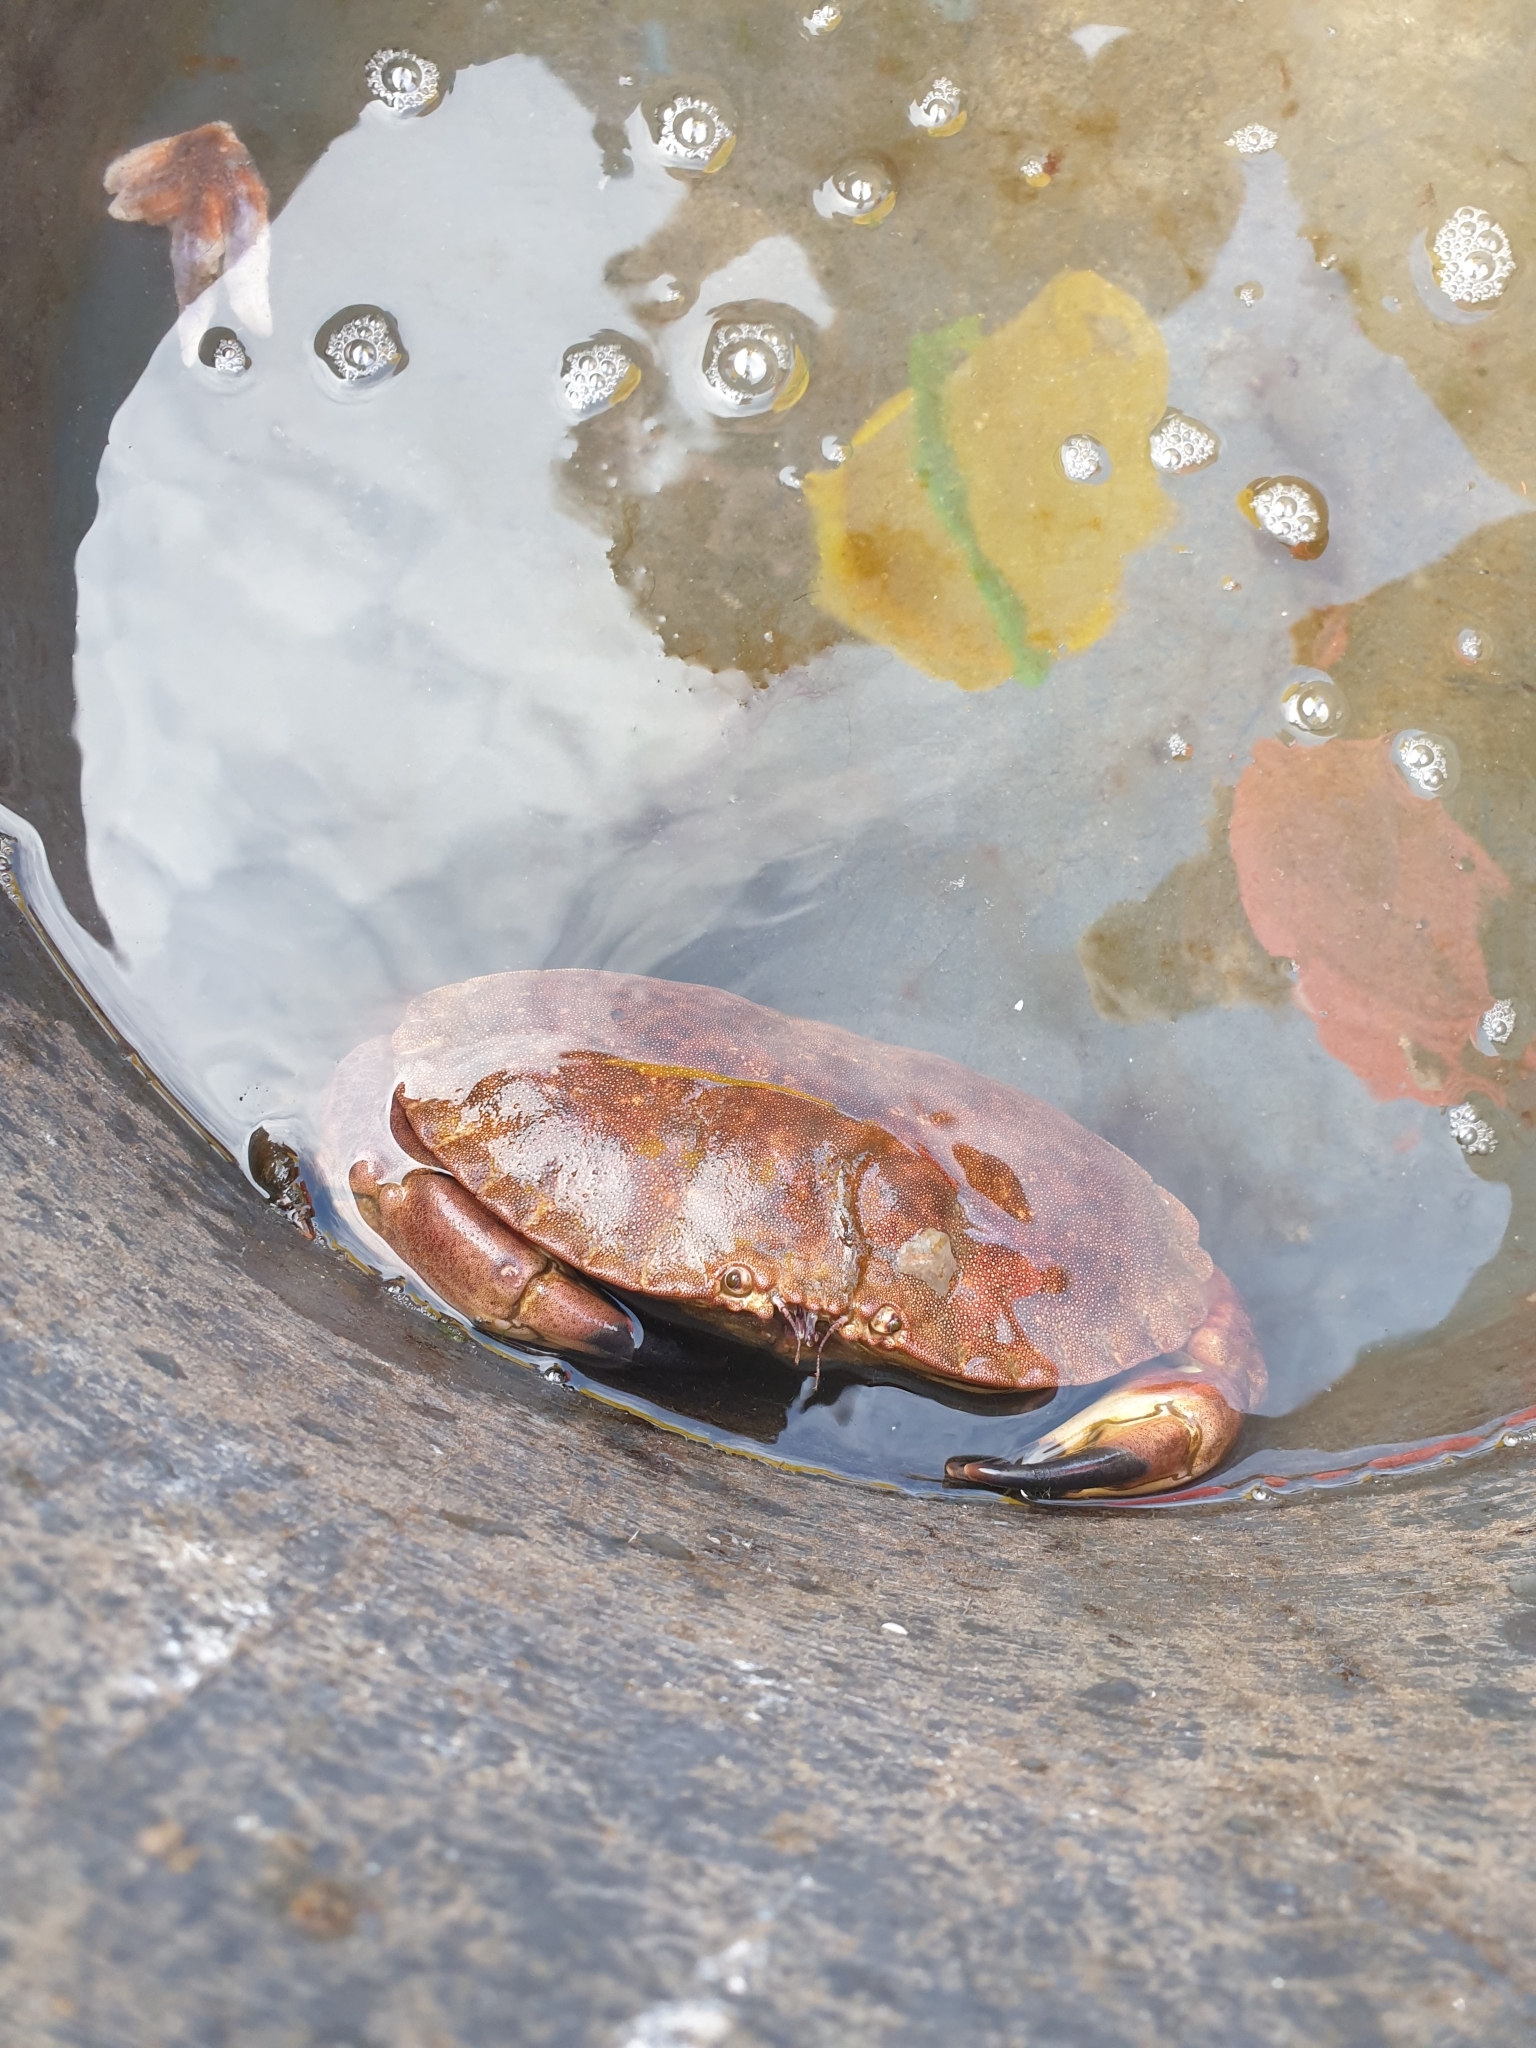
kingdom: Animalia
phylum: Arthropoda
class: Malacostraca
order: Decapoda
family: Cancridae
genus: Cancer
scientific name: Cancer pagurus
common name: Edible crab
